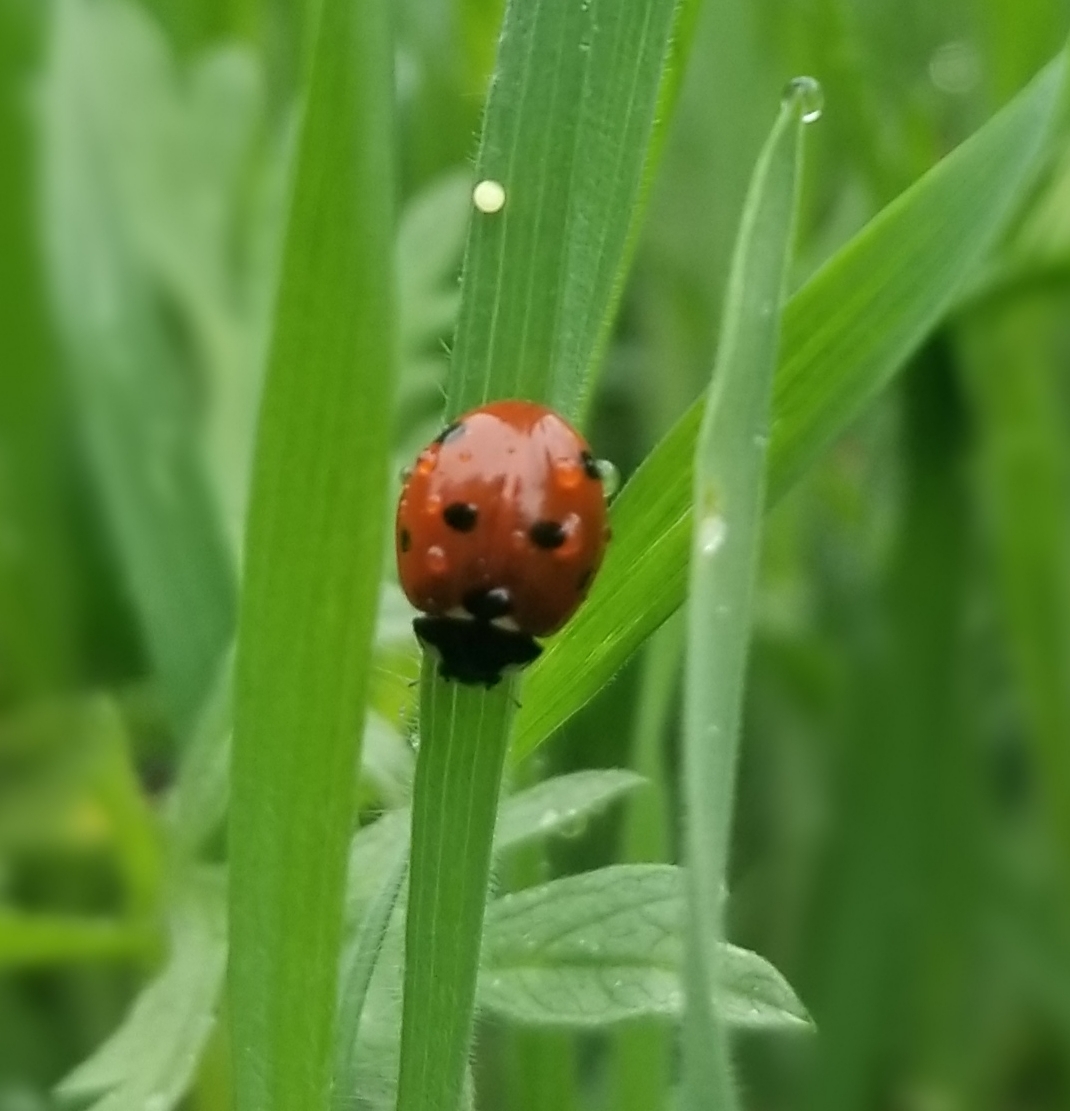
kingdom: Animalia
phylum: Arthropoda
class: Insecta
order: Coleoptera
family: Coccinellidae
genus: Coccinella
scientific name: Coccinella septempunctata
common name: Sevenspotted lady beetle
